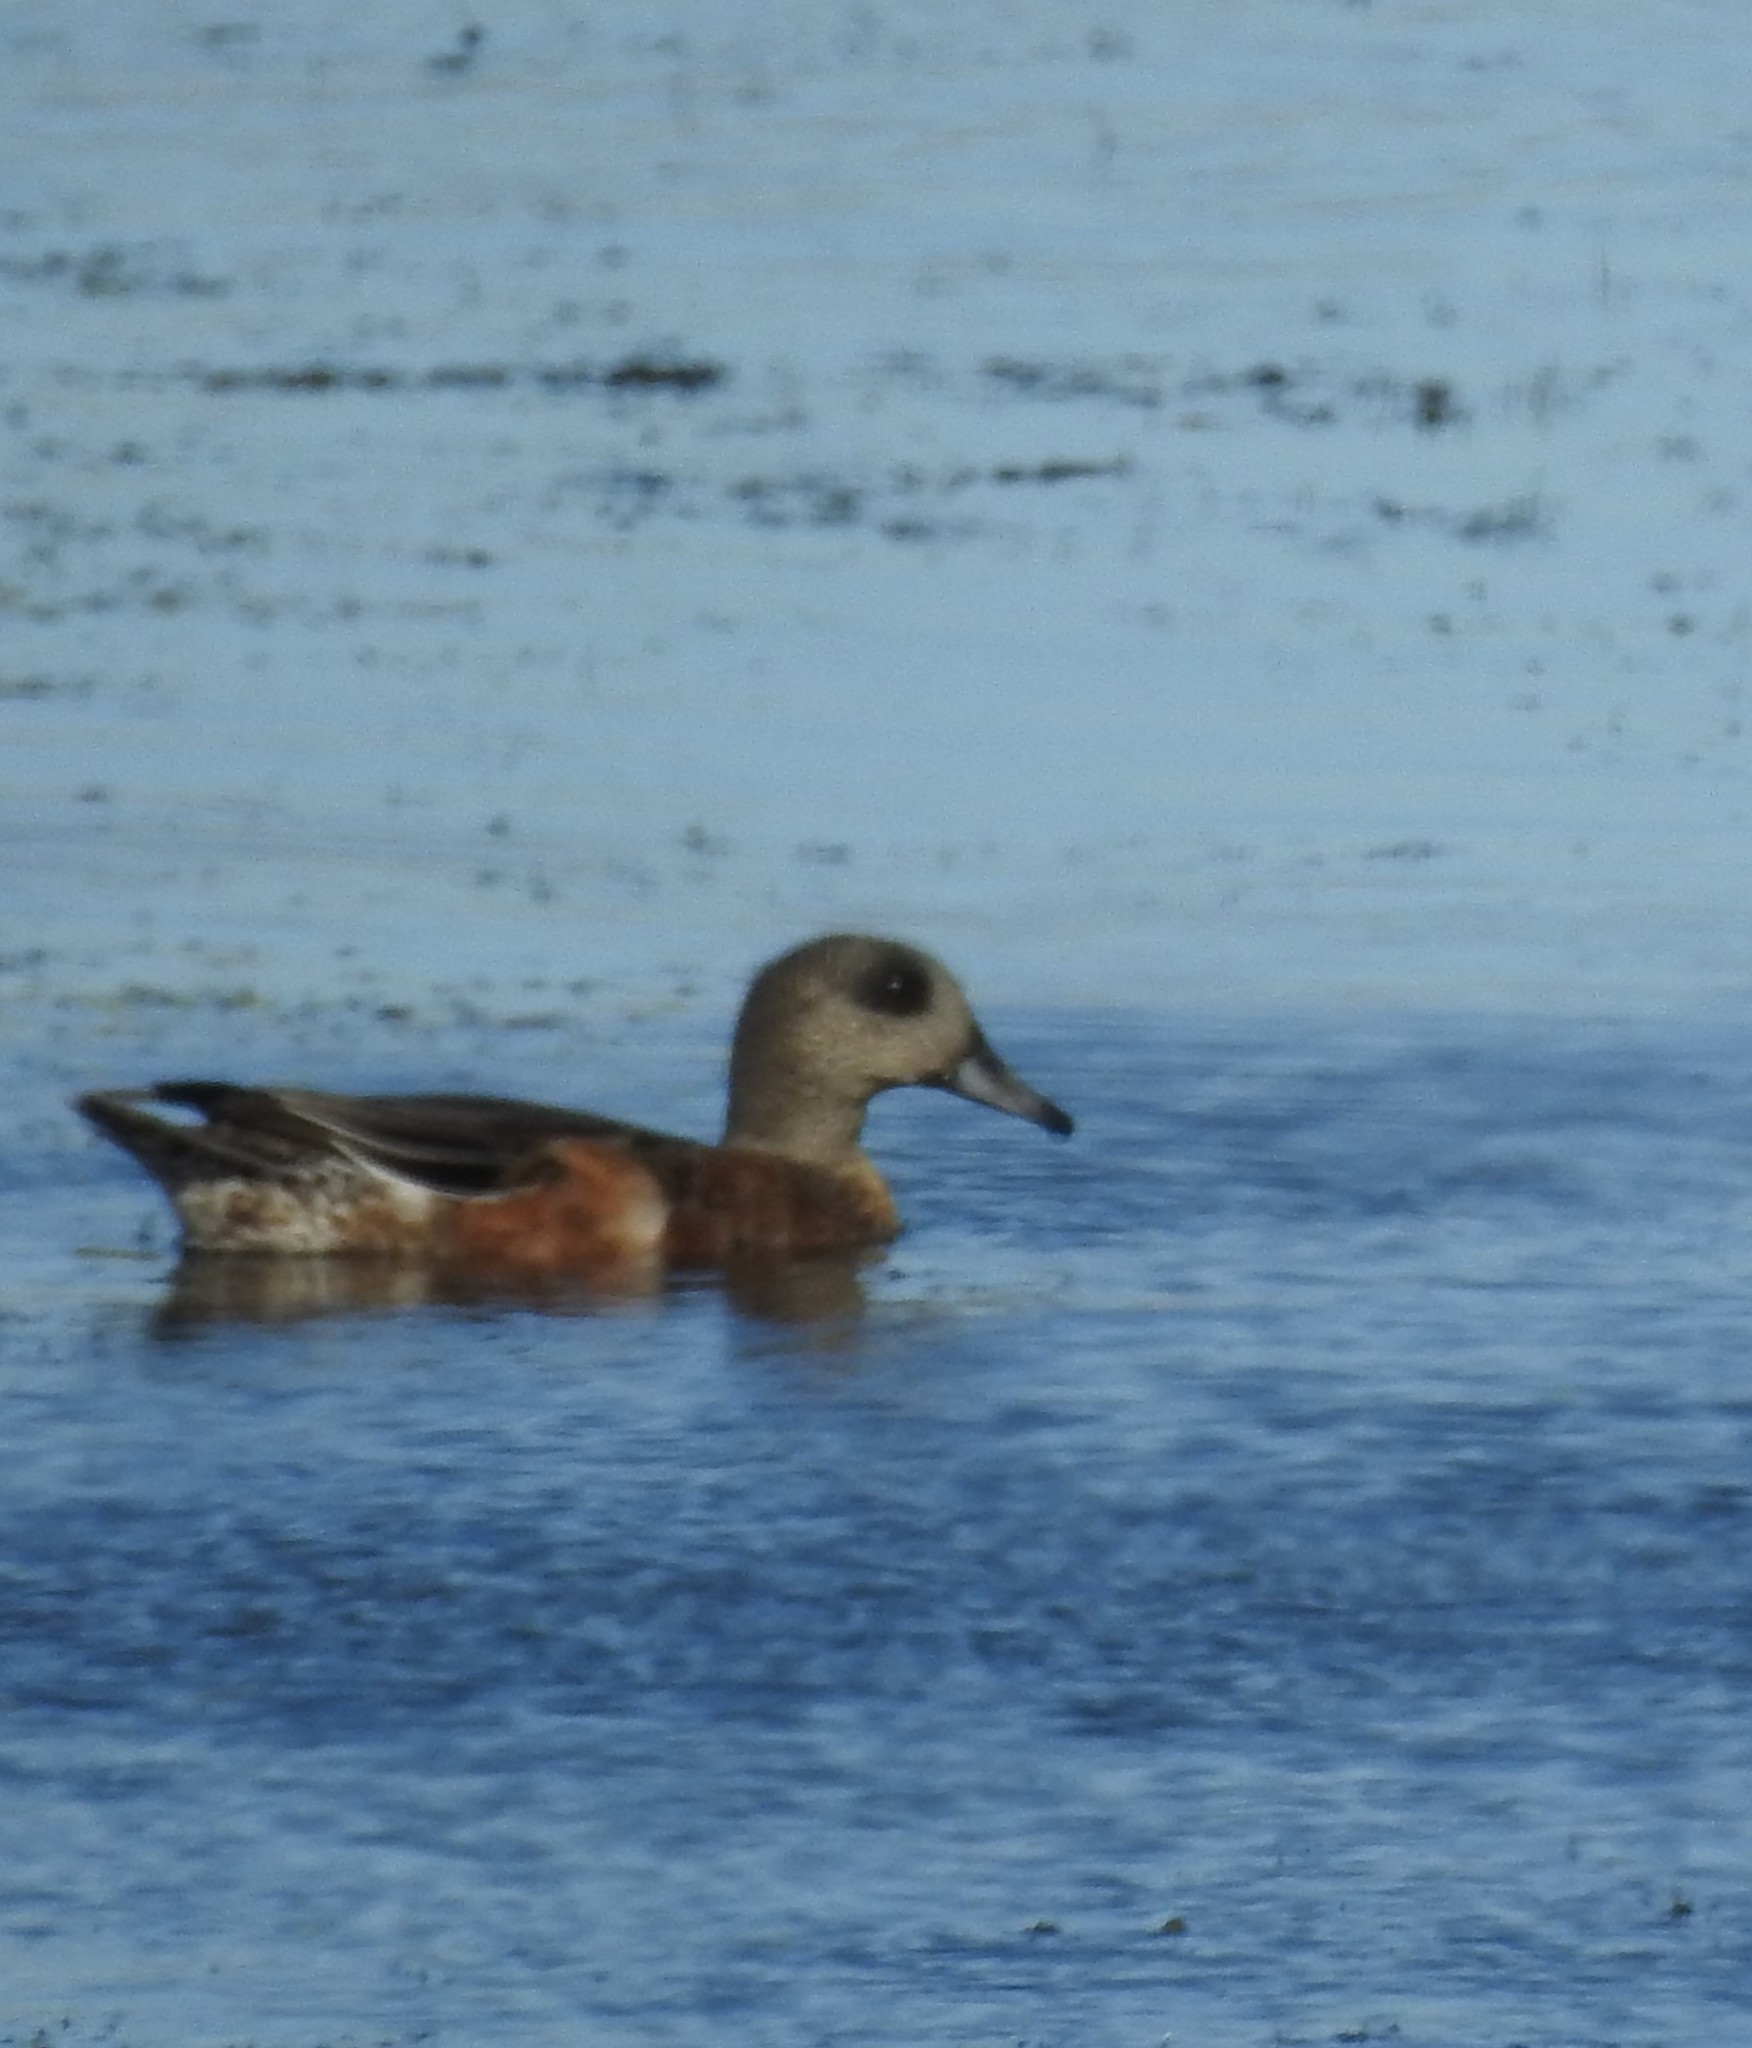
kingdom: Animalia
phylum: Chordata
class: Aves
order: Anseriformes
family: Anatidae
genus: Mareca
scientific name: Mareca americana
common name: American wigeon
